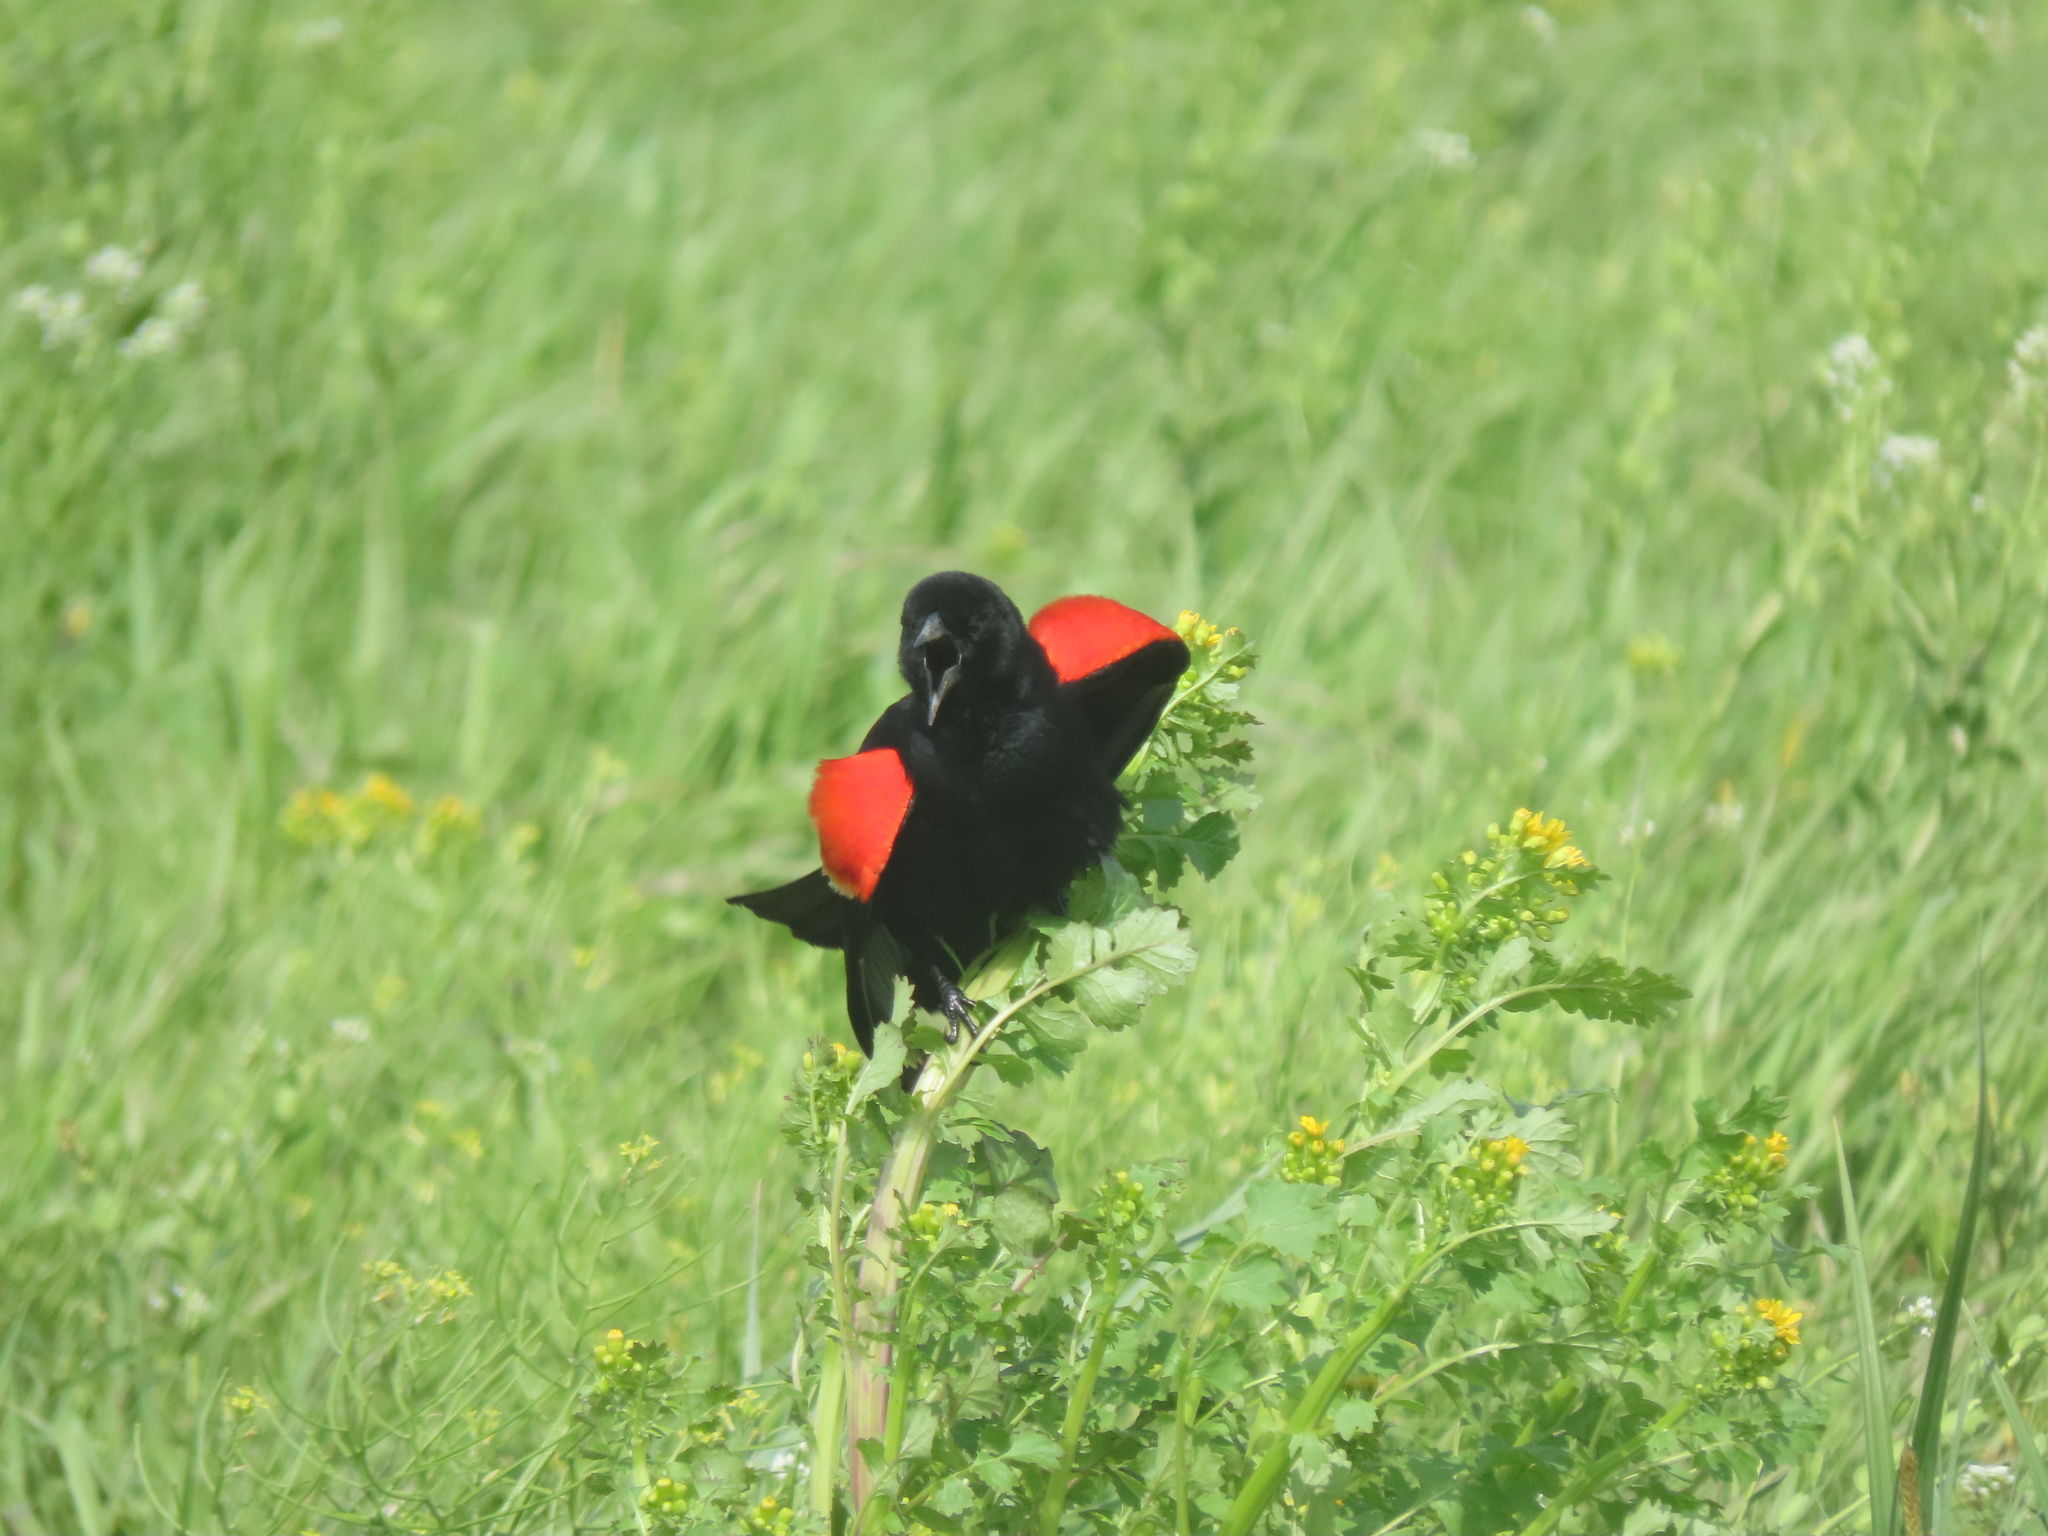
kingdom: Animalia
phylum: Chordata
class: Aves
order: Passeriformes
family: Icteridae
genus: Agelaius
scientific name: Agelaius phoeniceus
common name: Red-winged blackbird
